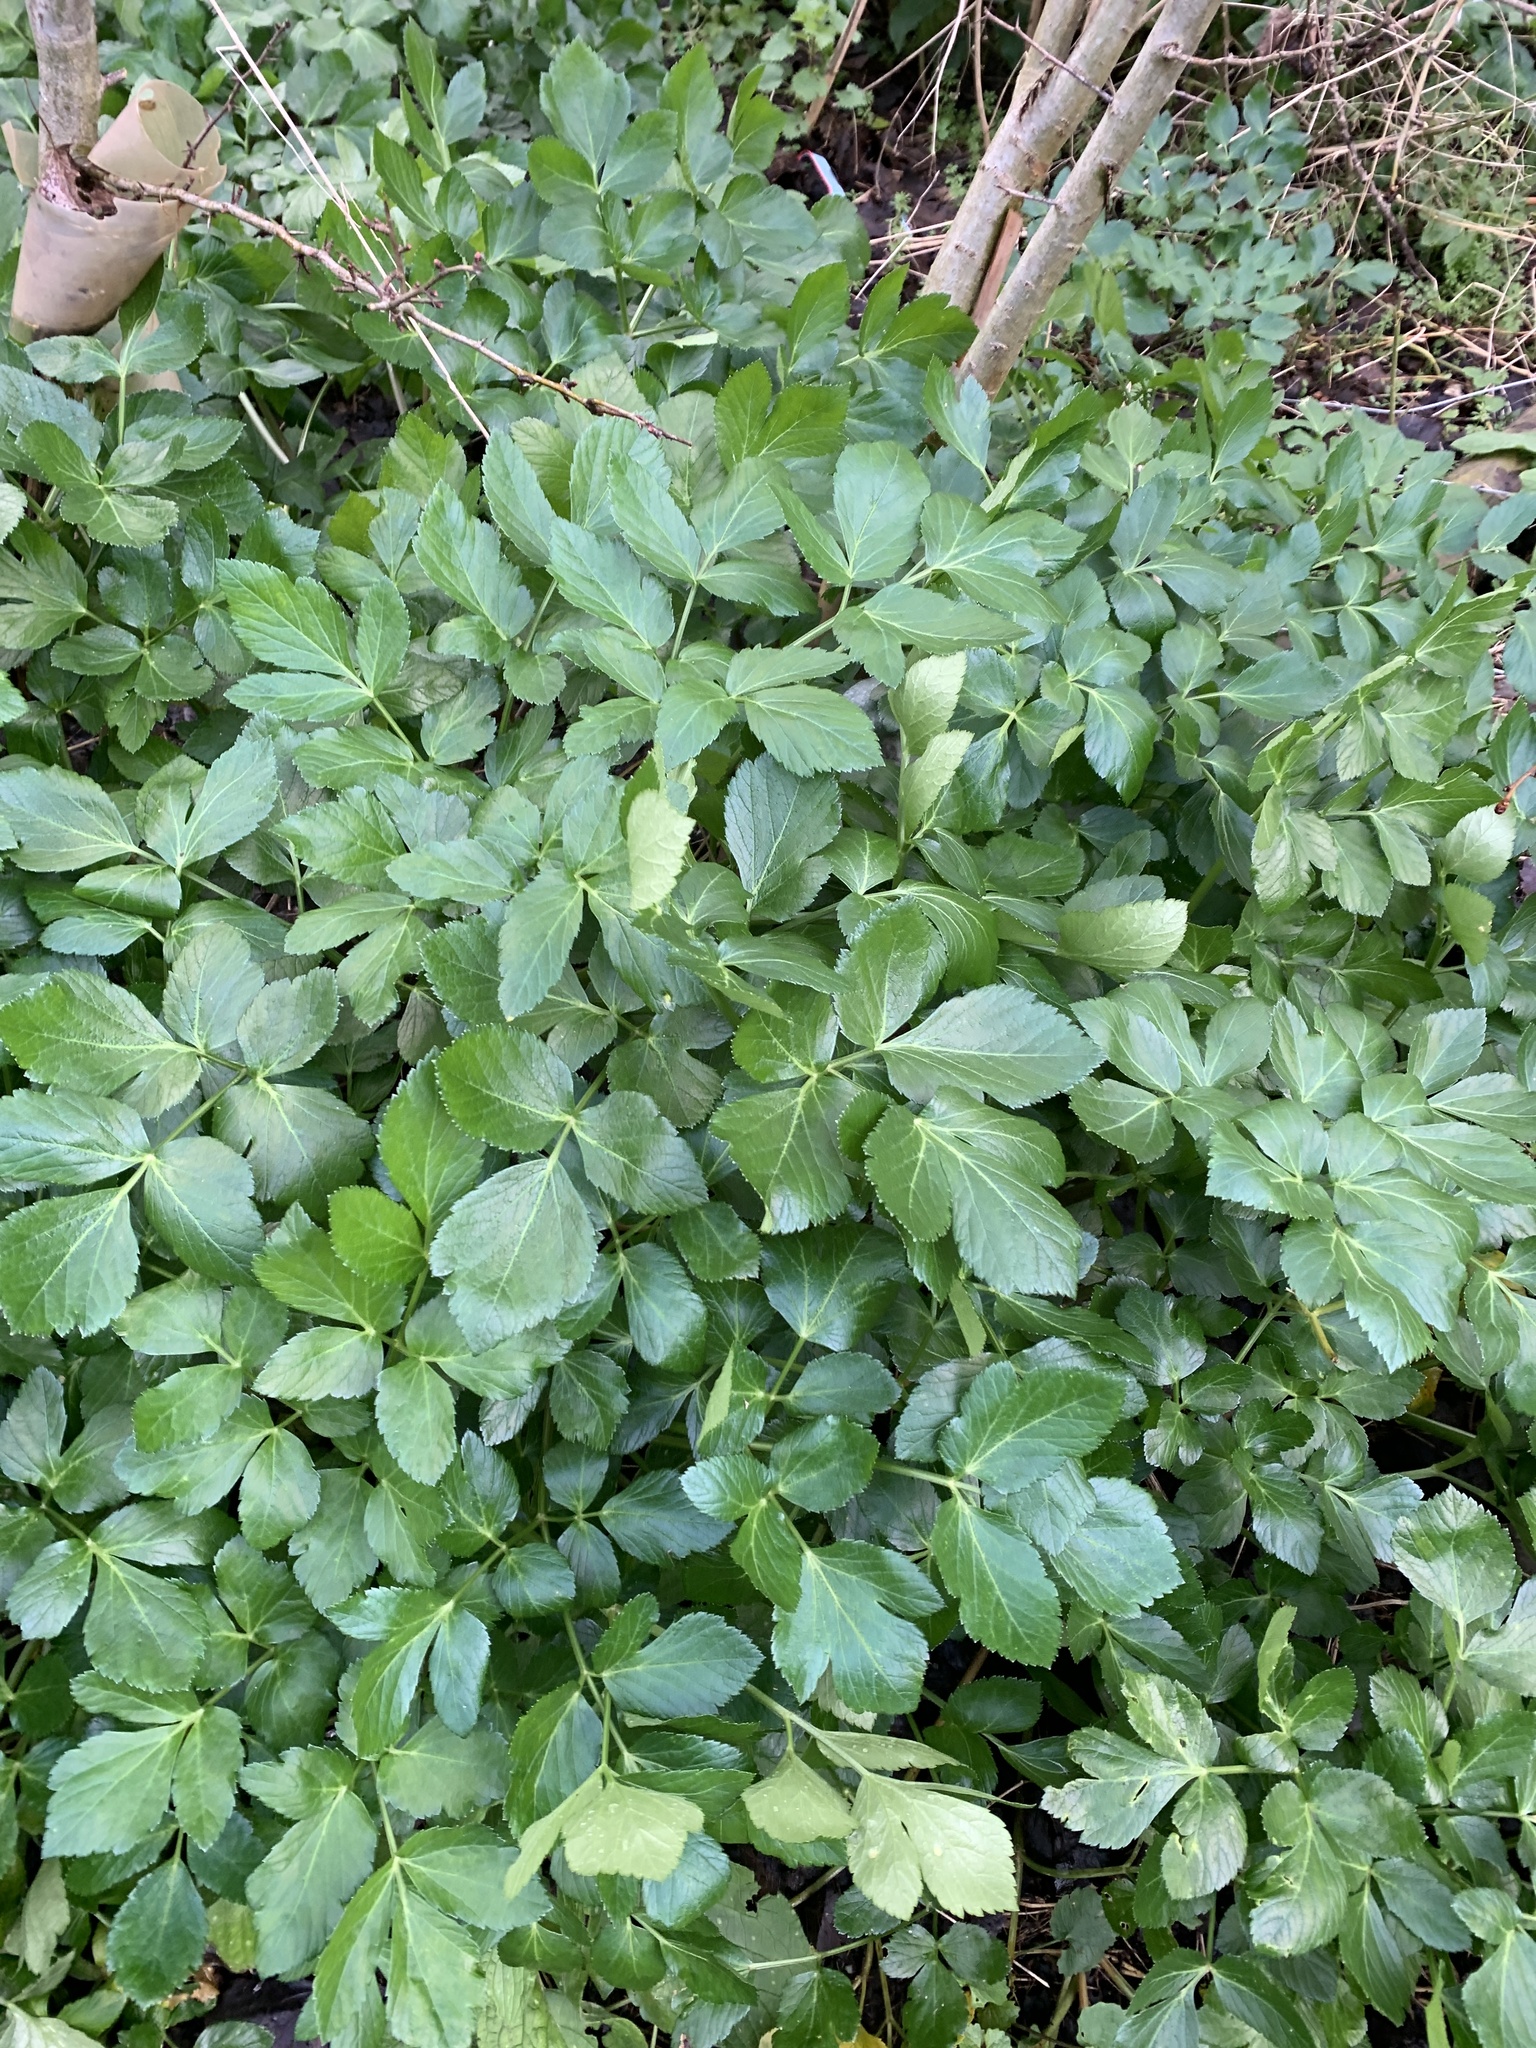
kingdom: Plantae
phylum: Tracheophyta
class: Magnoliopsida
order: Apiales
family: Apiaceae
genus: Smyrnium
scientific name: Smyrnium olusatrum
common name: Alexanders
